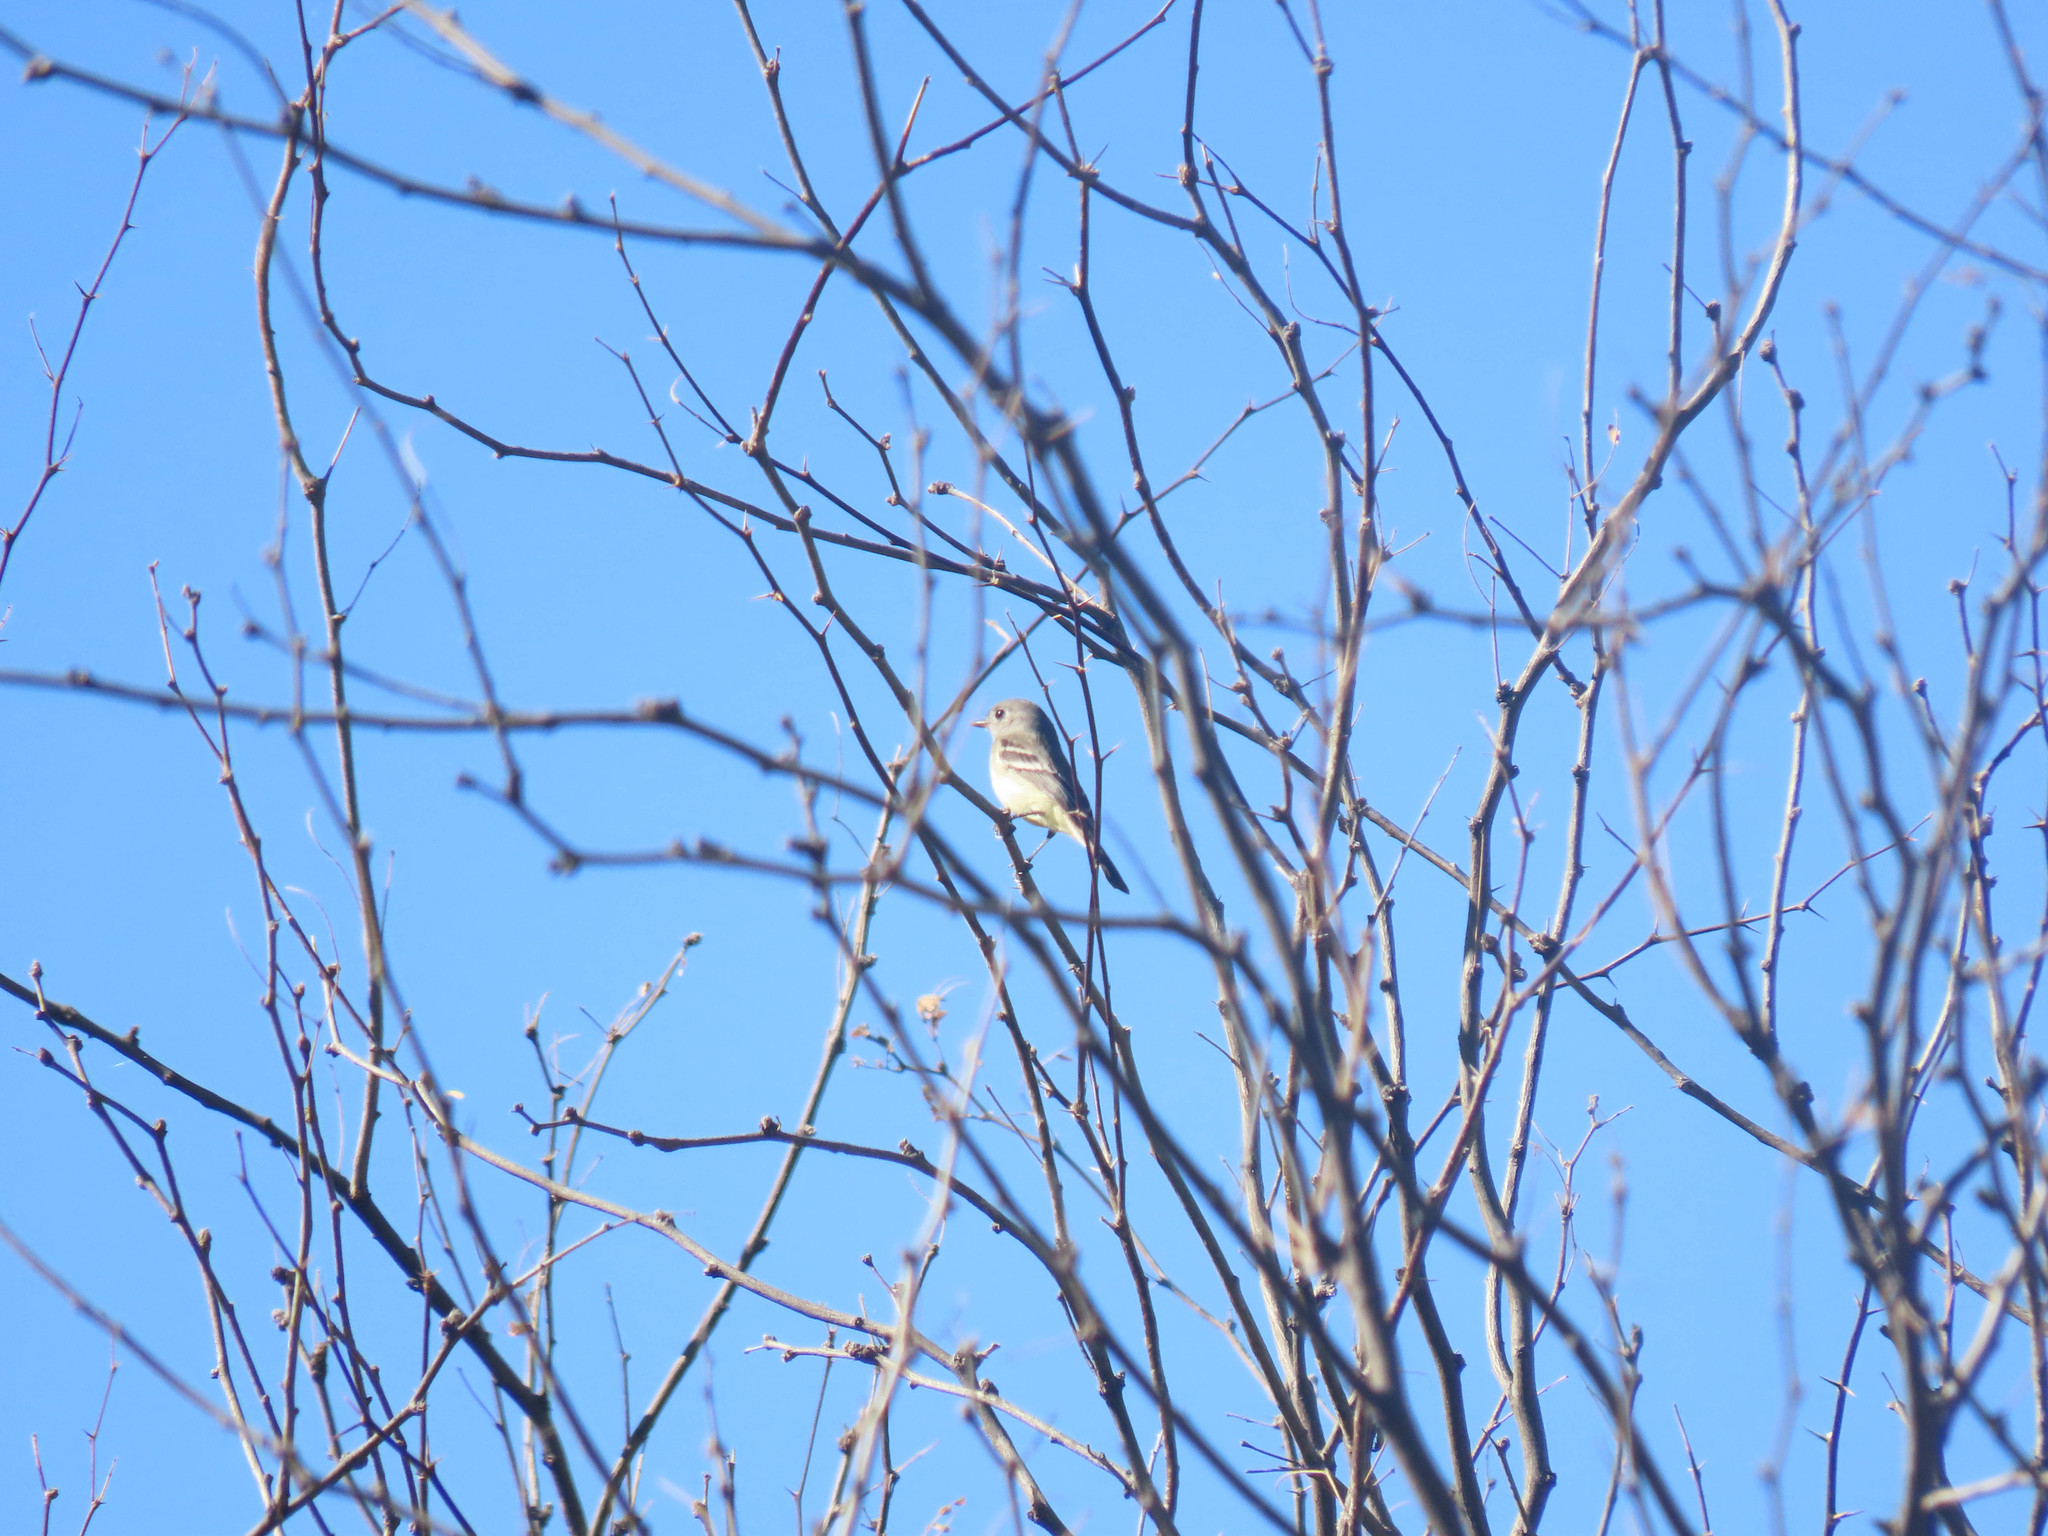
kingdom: Animalia
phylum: Chordata
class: Aves
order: Passeriformes
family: Tyrannidae
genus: Empidonax
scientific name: Empidonax oberholseri
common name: Dusky flycatcher
